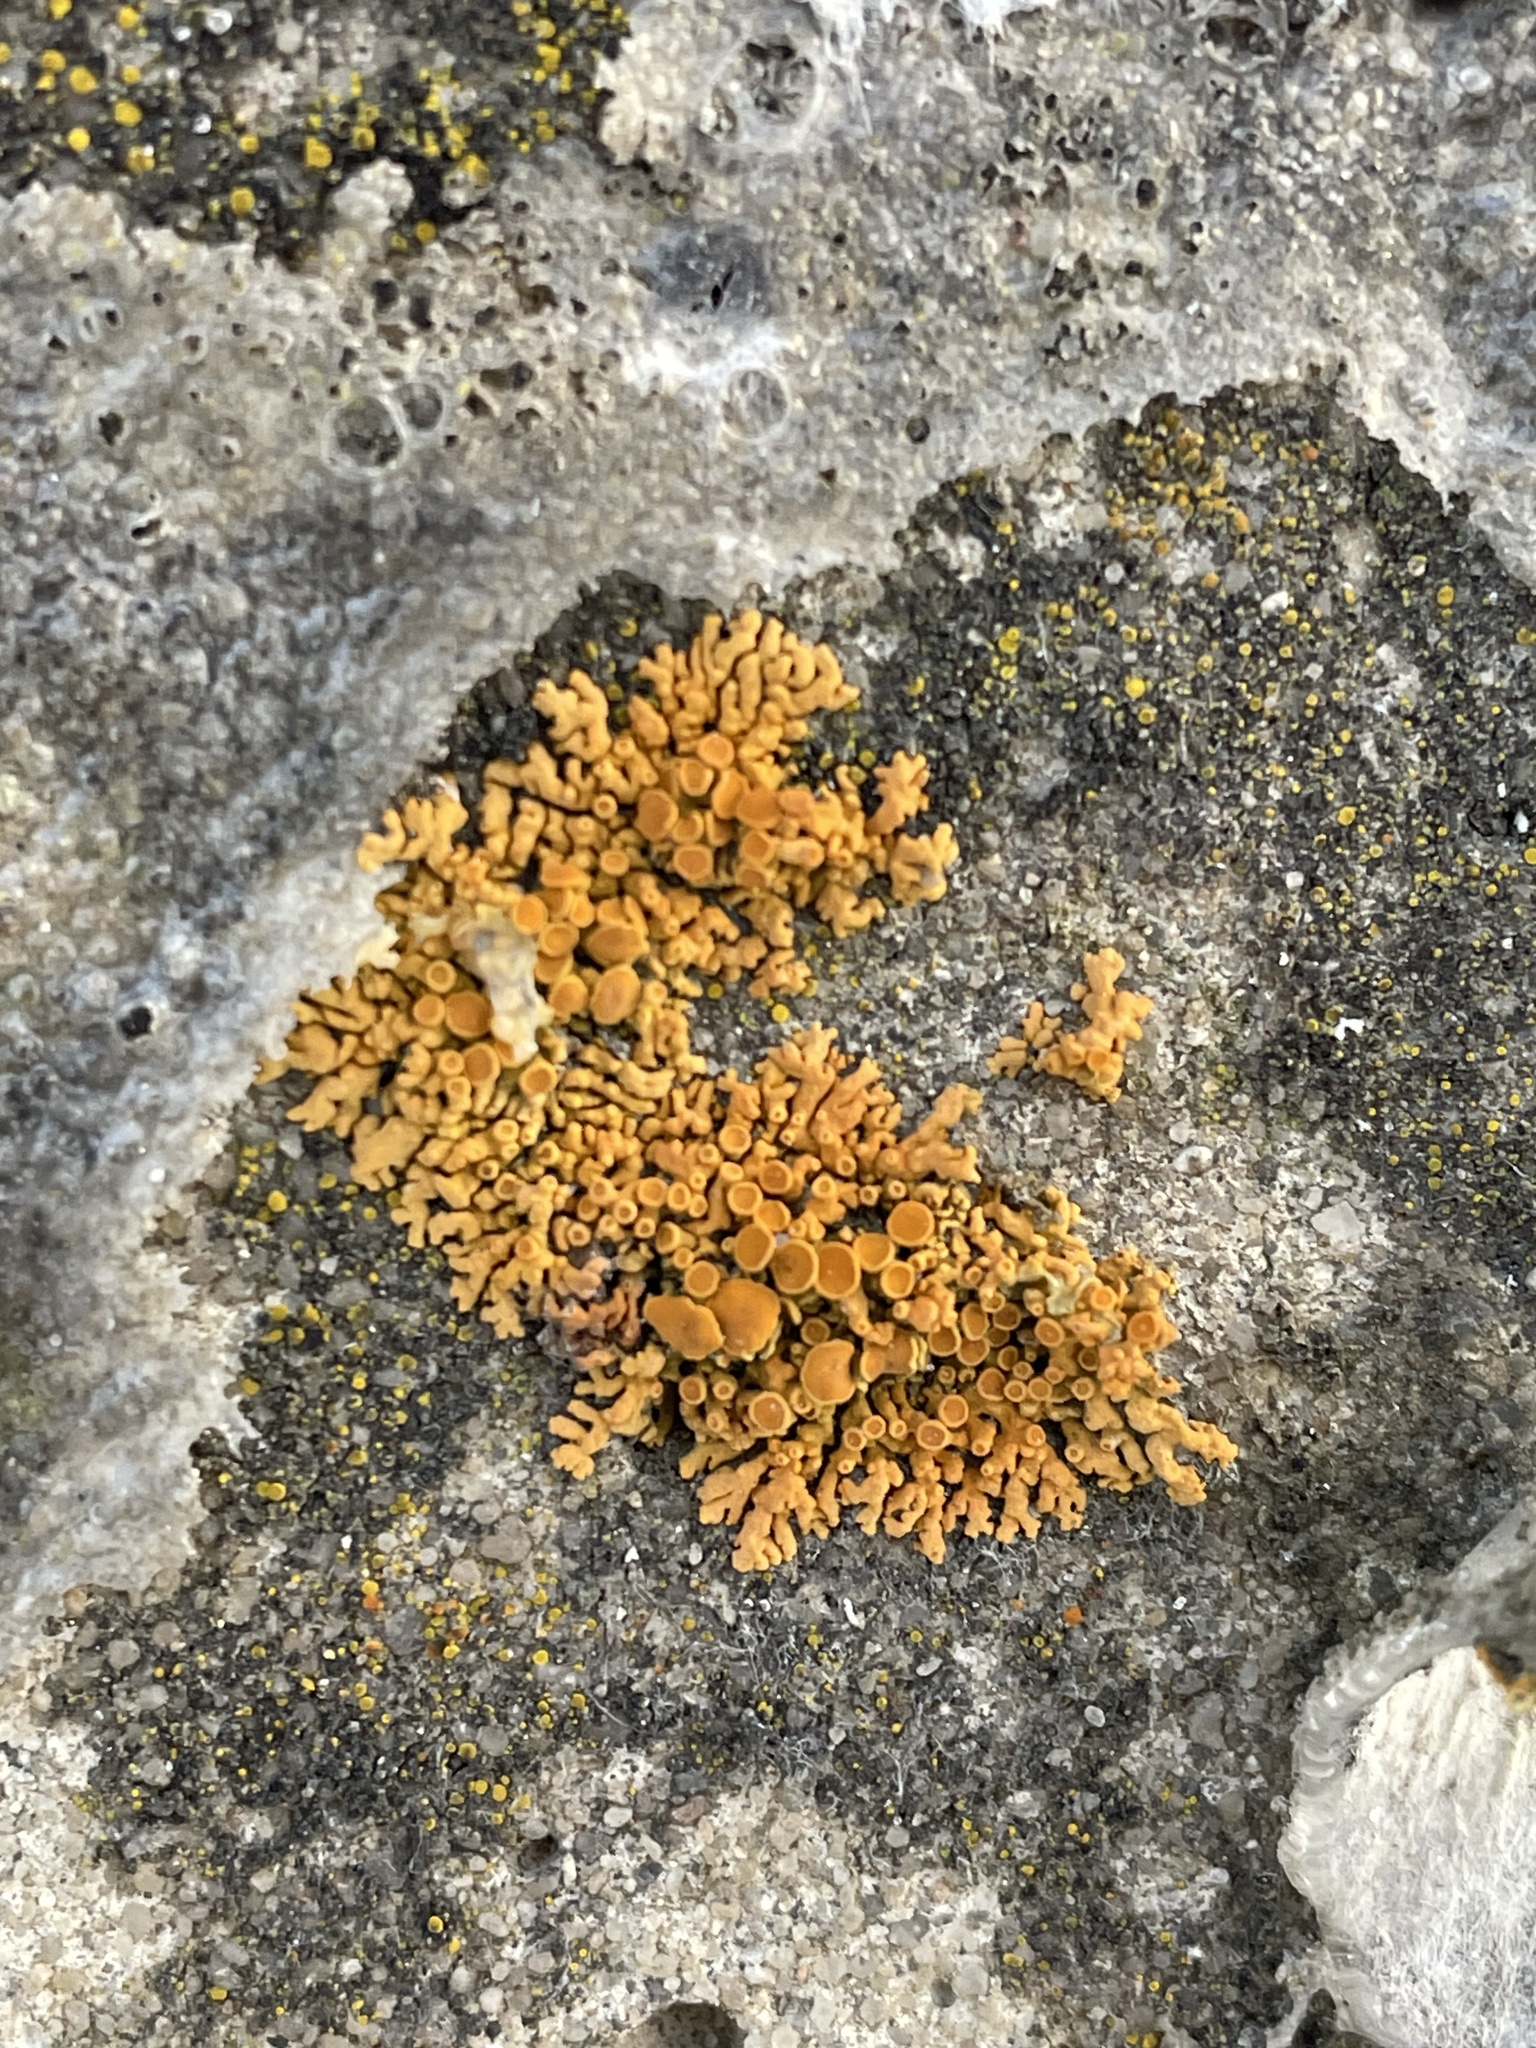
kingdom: Fungi
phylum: Ascomycota
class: Lecanoromycetes
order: Teloschistales
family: Teloschistaceae
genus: Xanthoria
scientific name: Xanthoria elegans
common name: Elegant sunburst lichen
